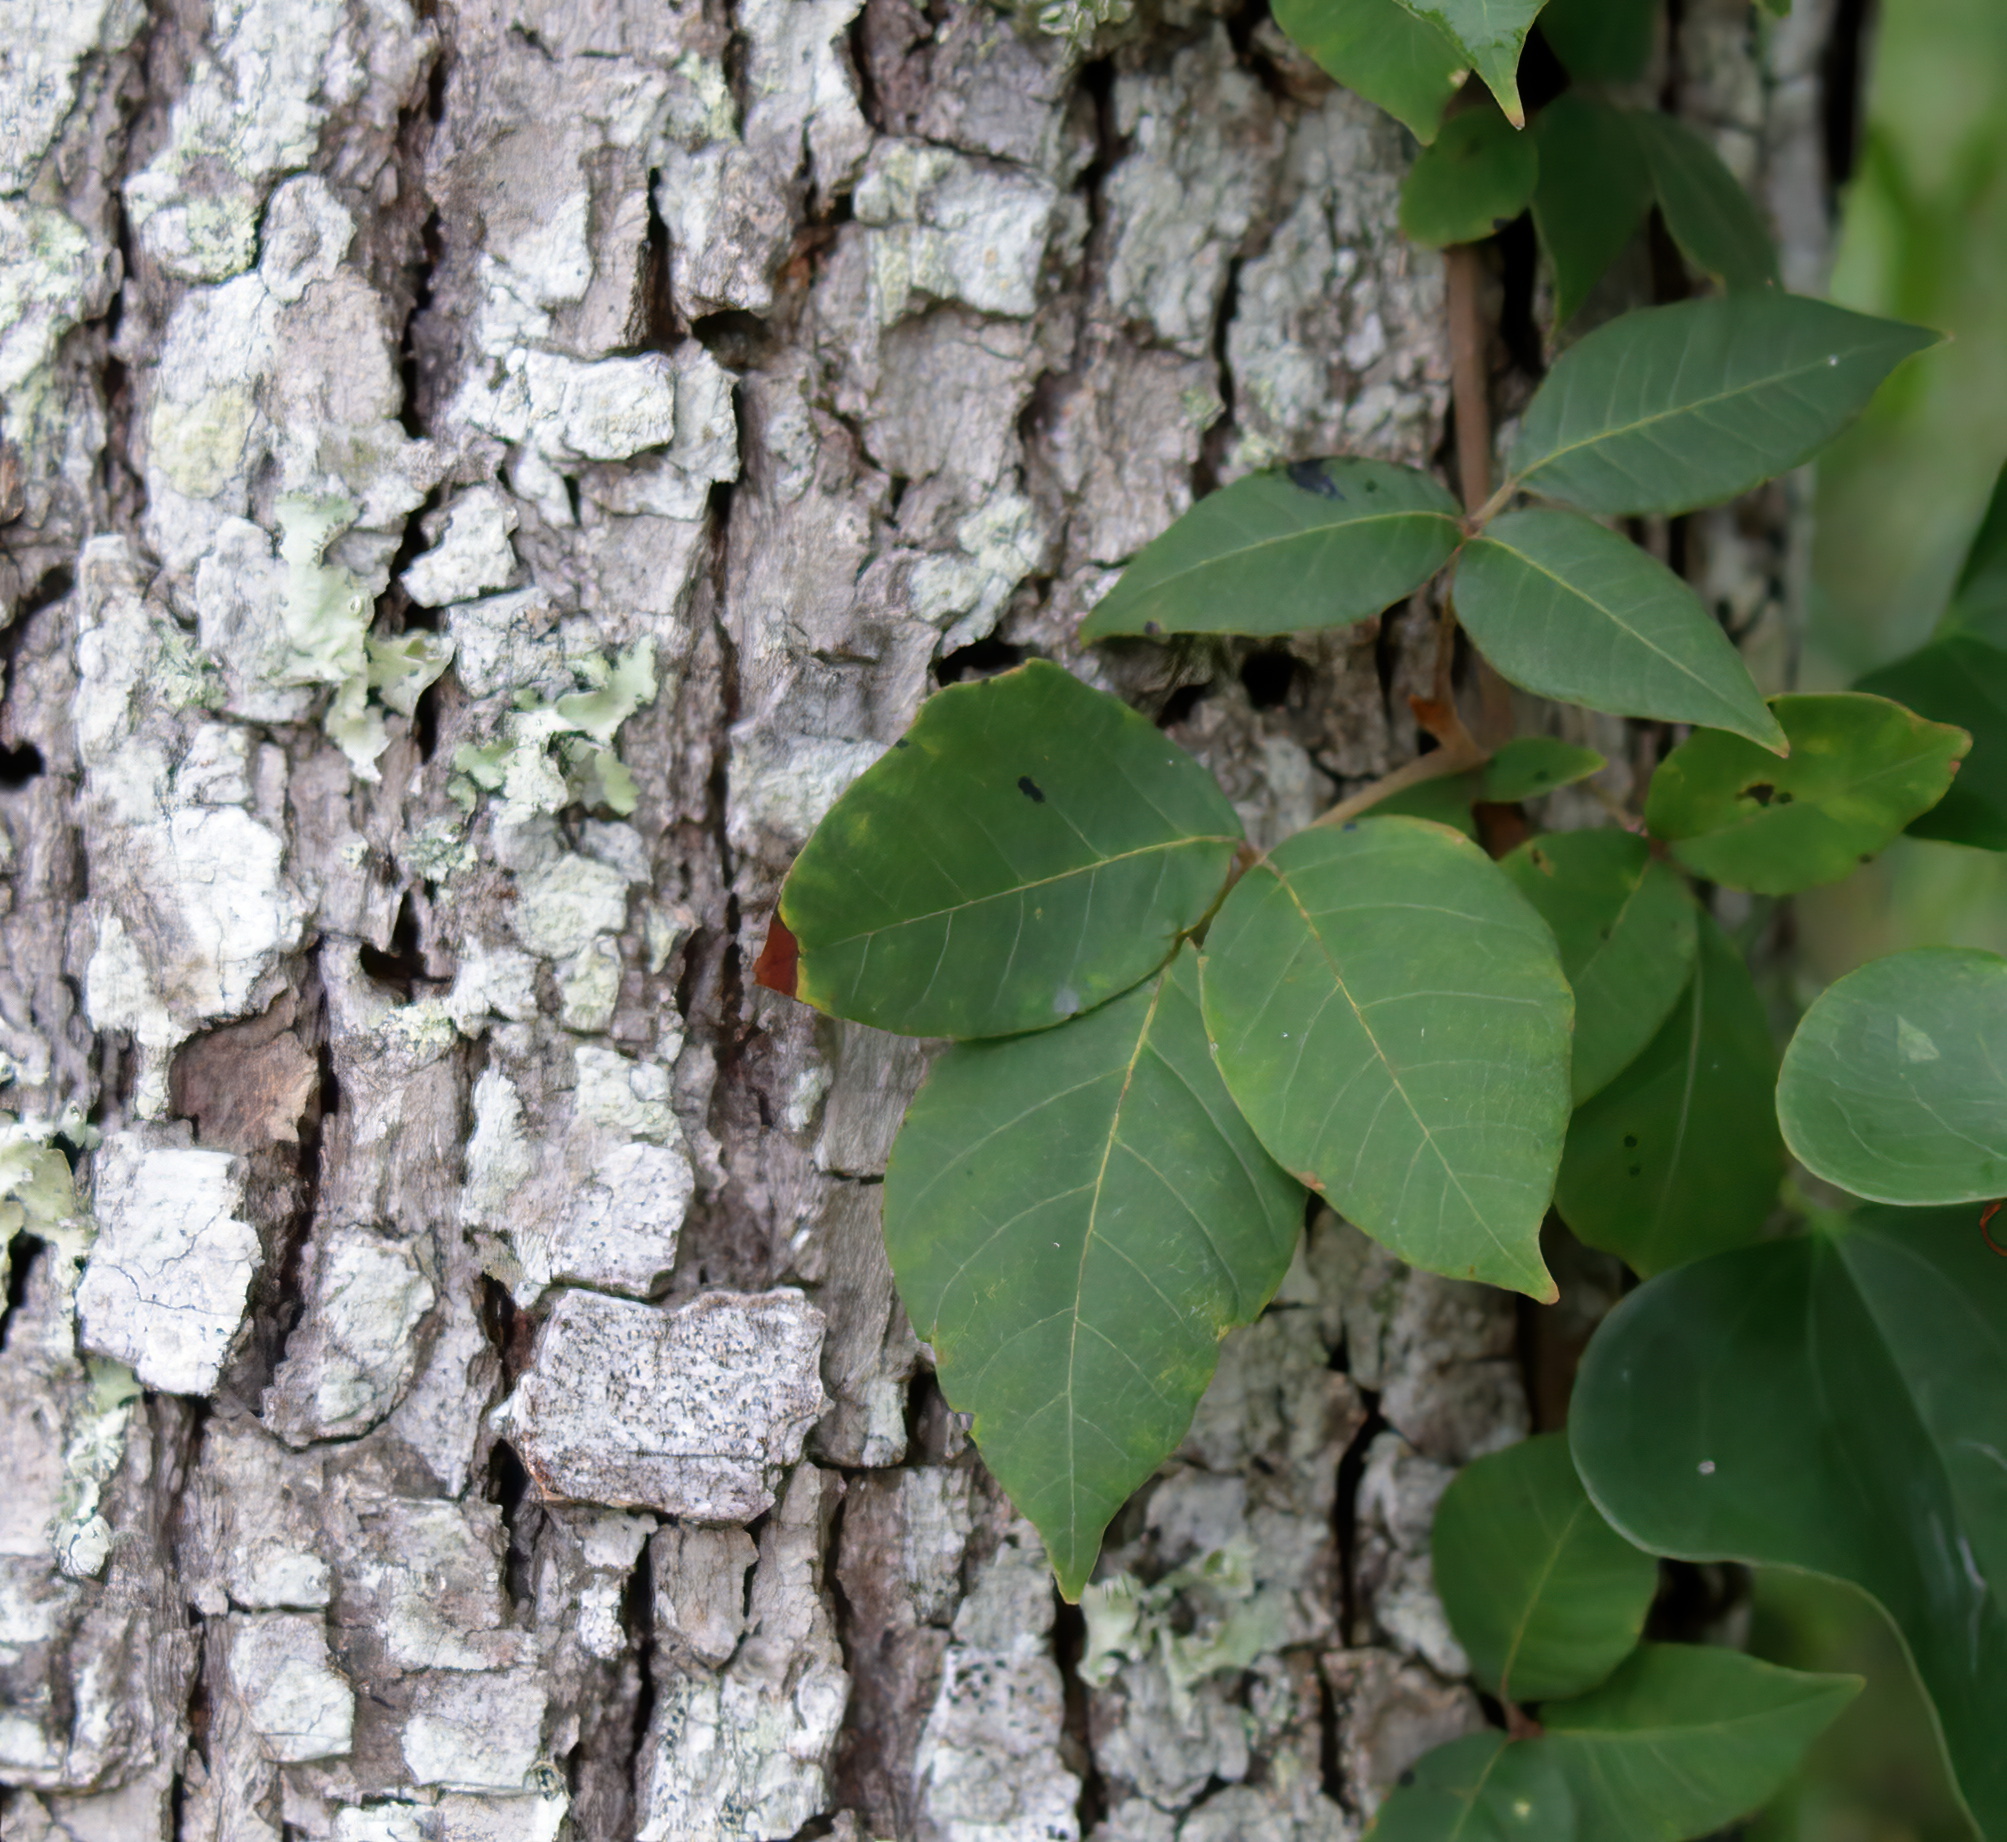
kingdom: Plantae
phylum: Tracheophyta
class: Magnoliopsida
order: Sapindales
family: Anacardiaceae
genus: Toxicodendron
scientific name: Toxicodendron radicans
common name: Poison ivy
